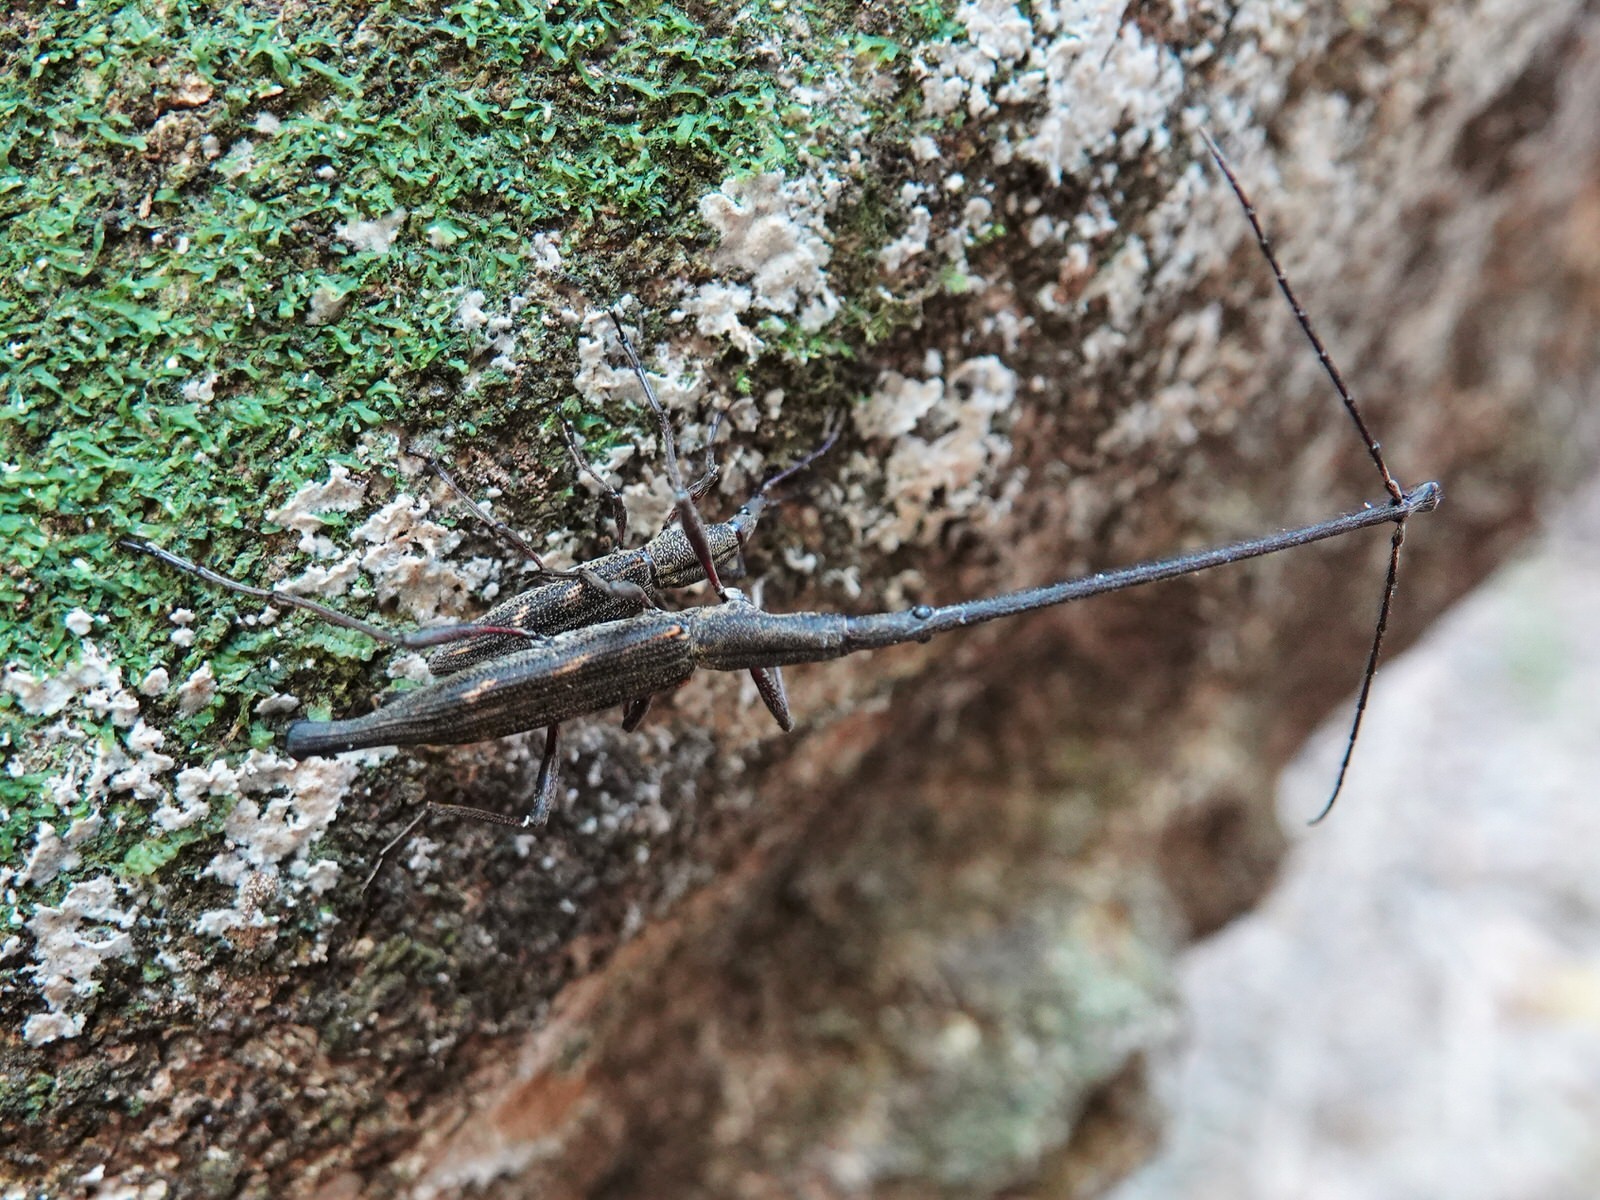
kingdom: Animalia
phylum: Arthropoda
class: Insecta
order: Coleoptera
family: Brentidae
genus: Lasiorhynchus
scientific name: Lasiorhynchus barbicornis
